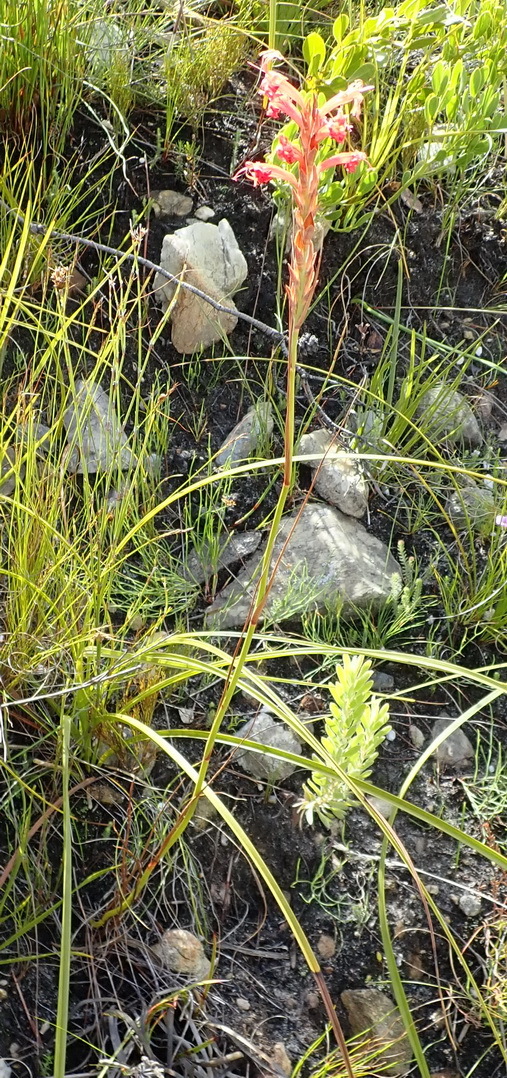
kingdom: Plantae
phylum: Tracheophyta
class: Liliopsida
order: Asparagales
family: Iridaceae
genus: Tritoniopsis
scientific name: Tritoniopsis triticea
